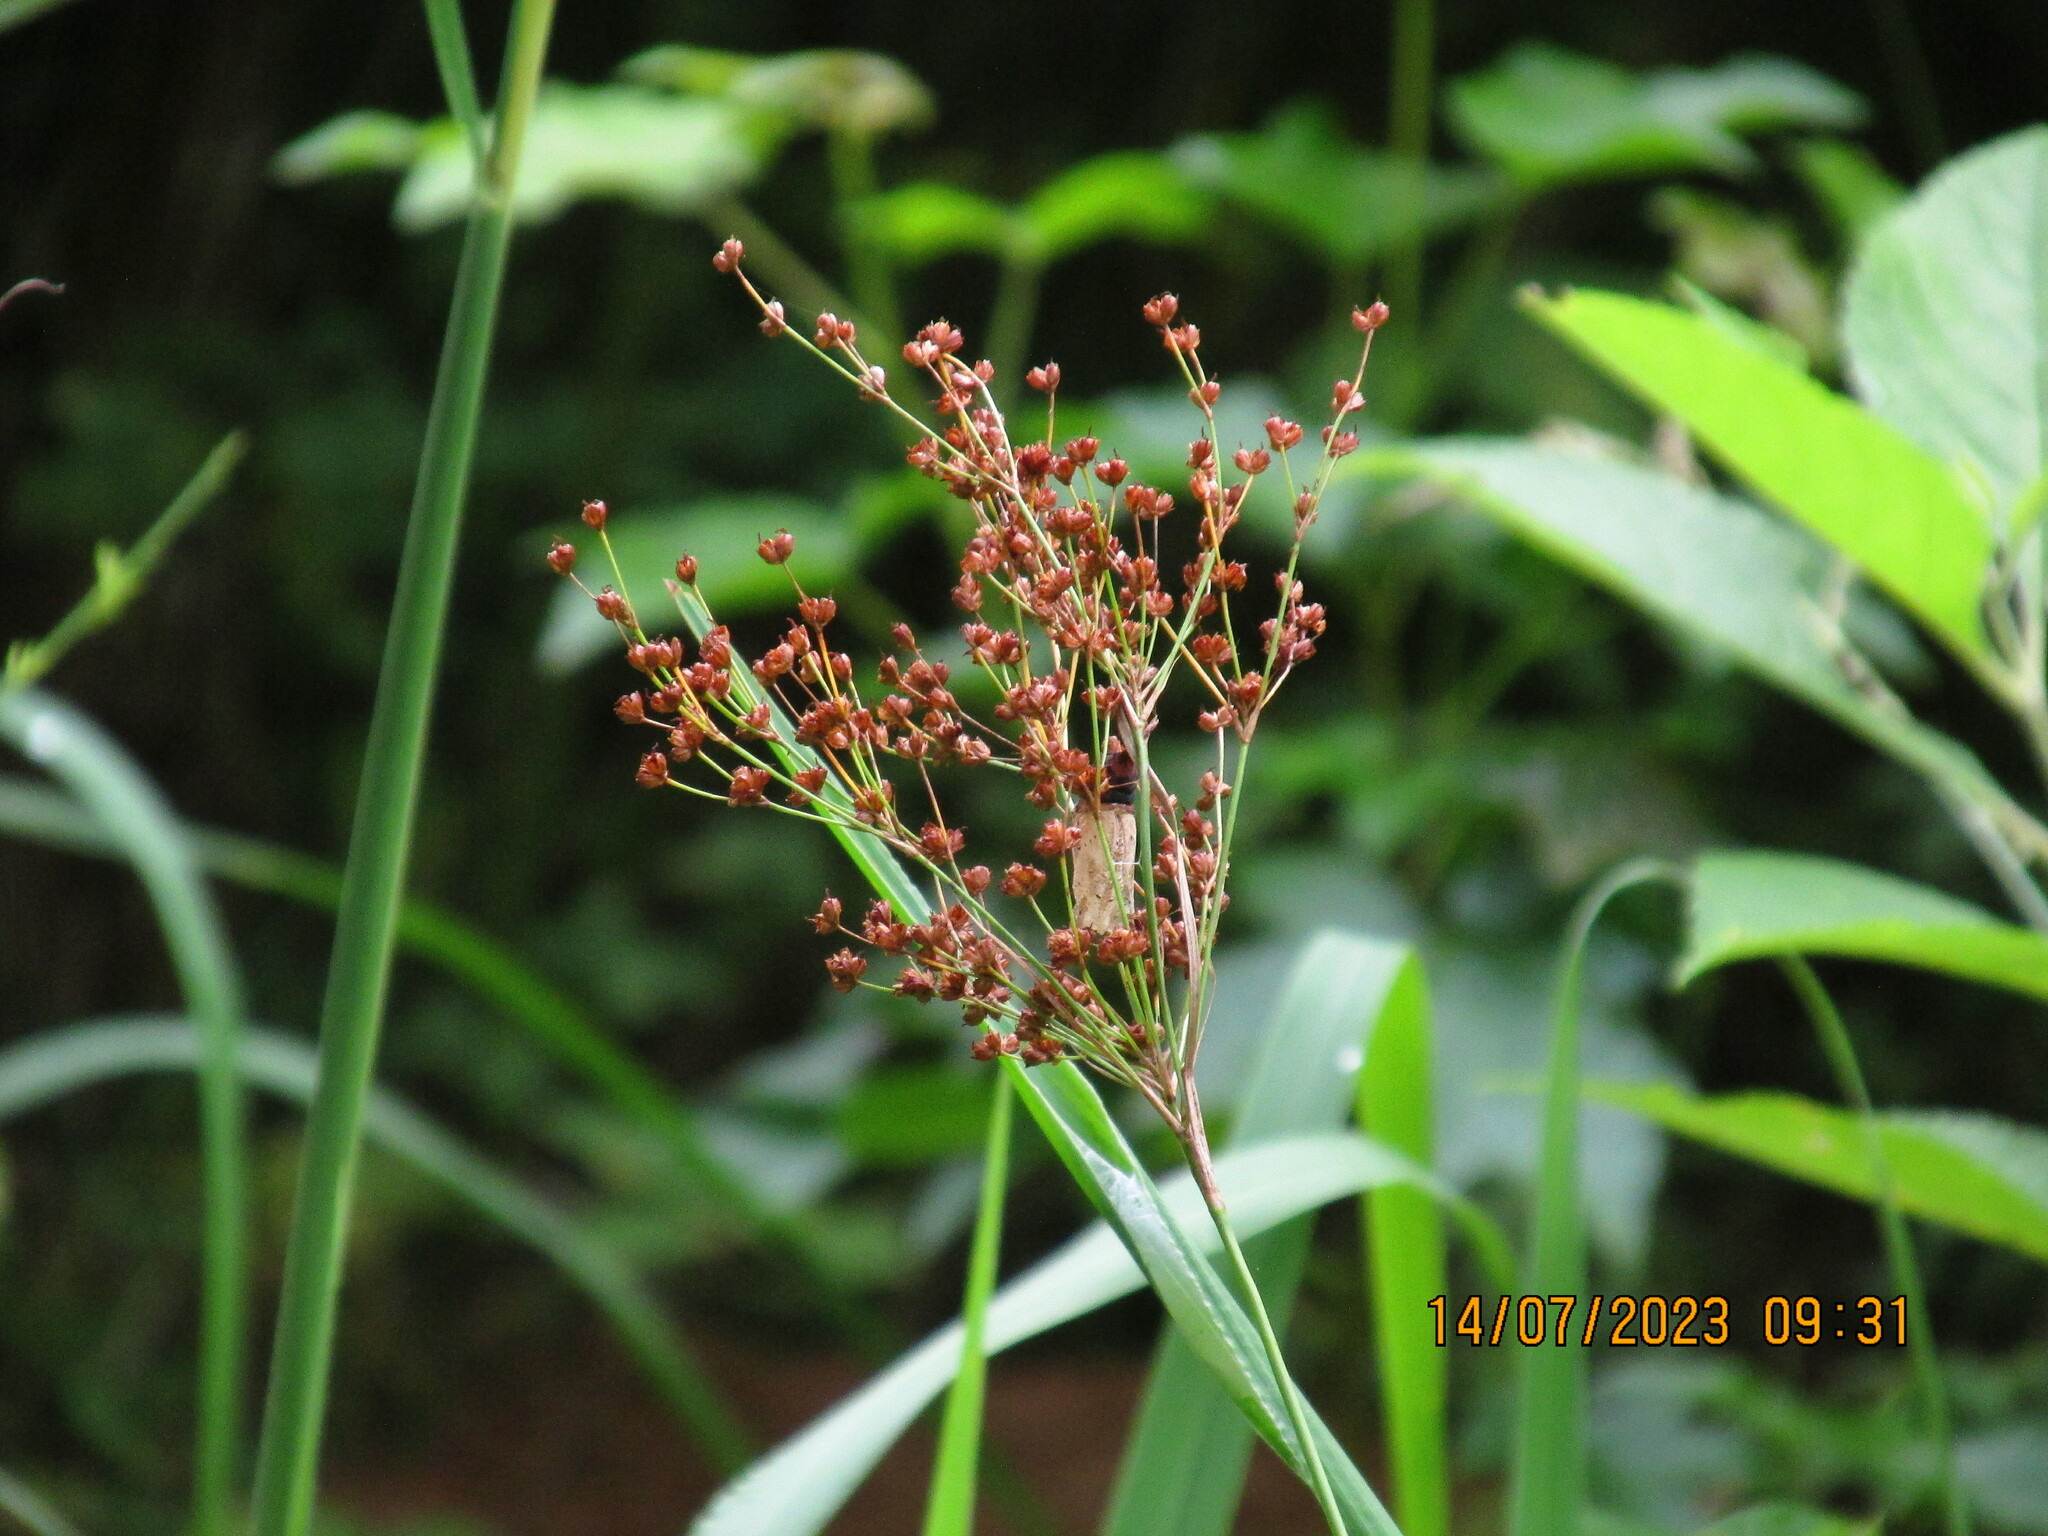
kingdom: Plantae
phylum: Tracheophyta
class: Liliopsida
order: Poales
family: Juncaceae
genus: Juncus
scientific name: Juncus biflorus
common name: Two-flowered rush
